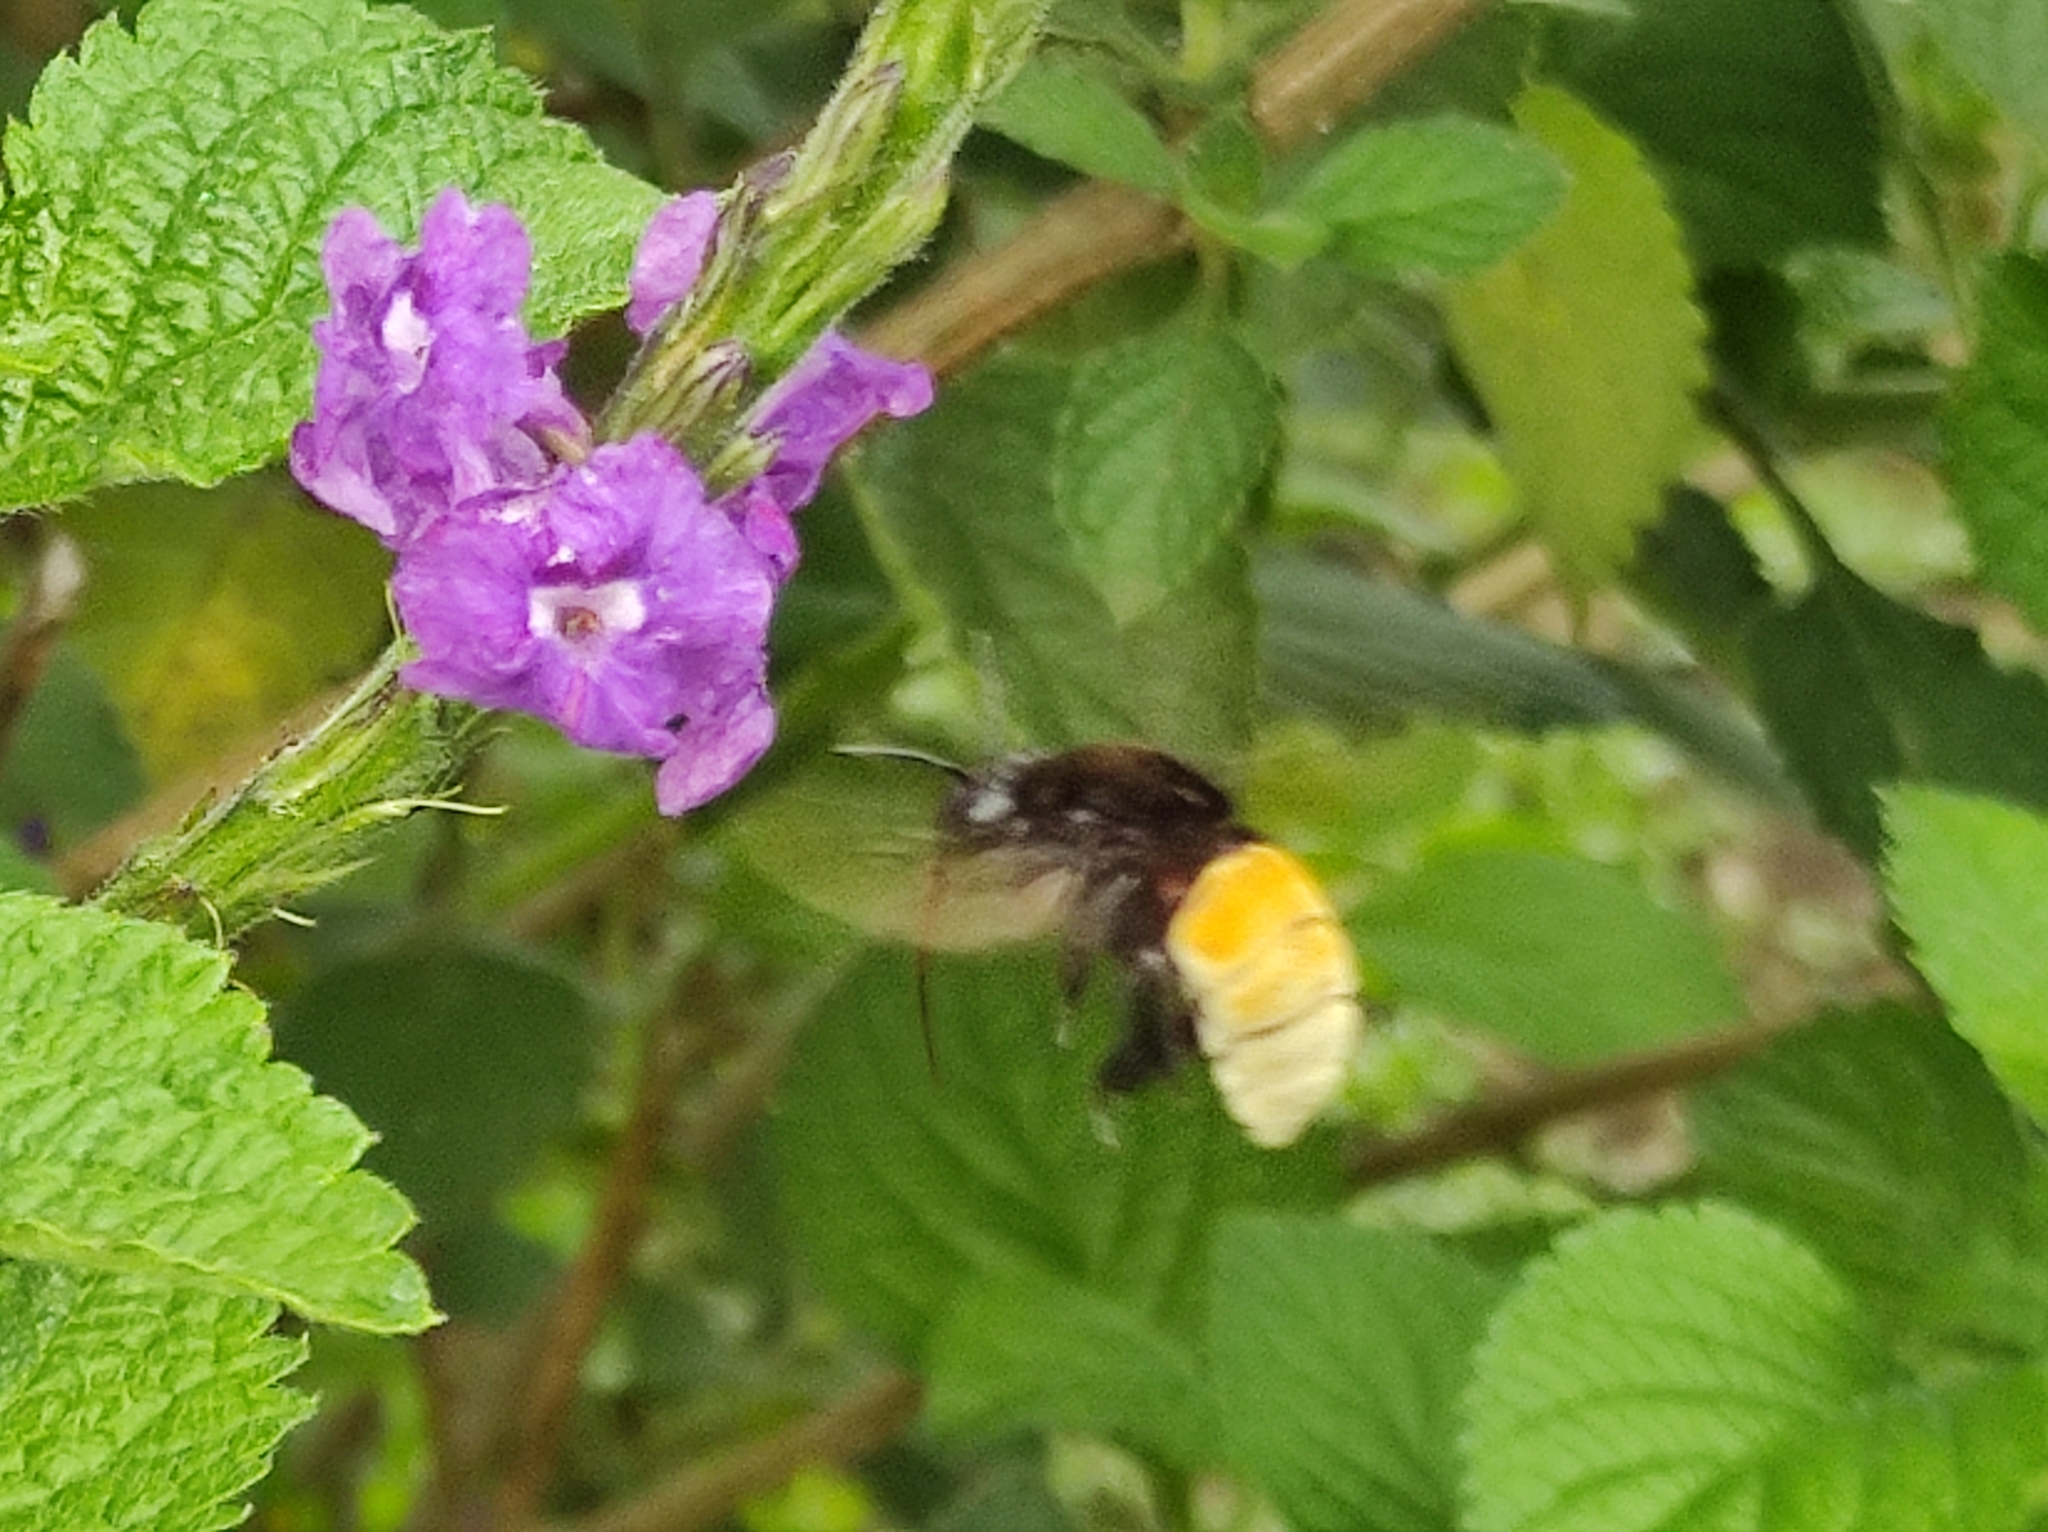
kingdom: Animalia
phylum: Arthropoda
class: Insecta
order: Hymenoptera
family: Apidae
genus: Eulaema
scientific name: Eulaema polychroma
